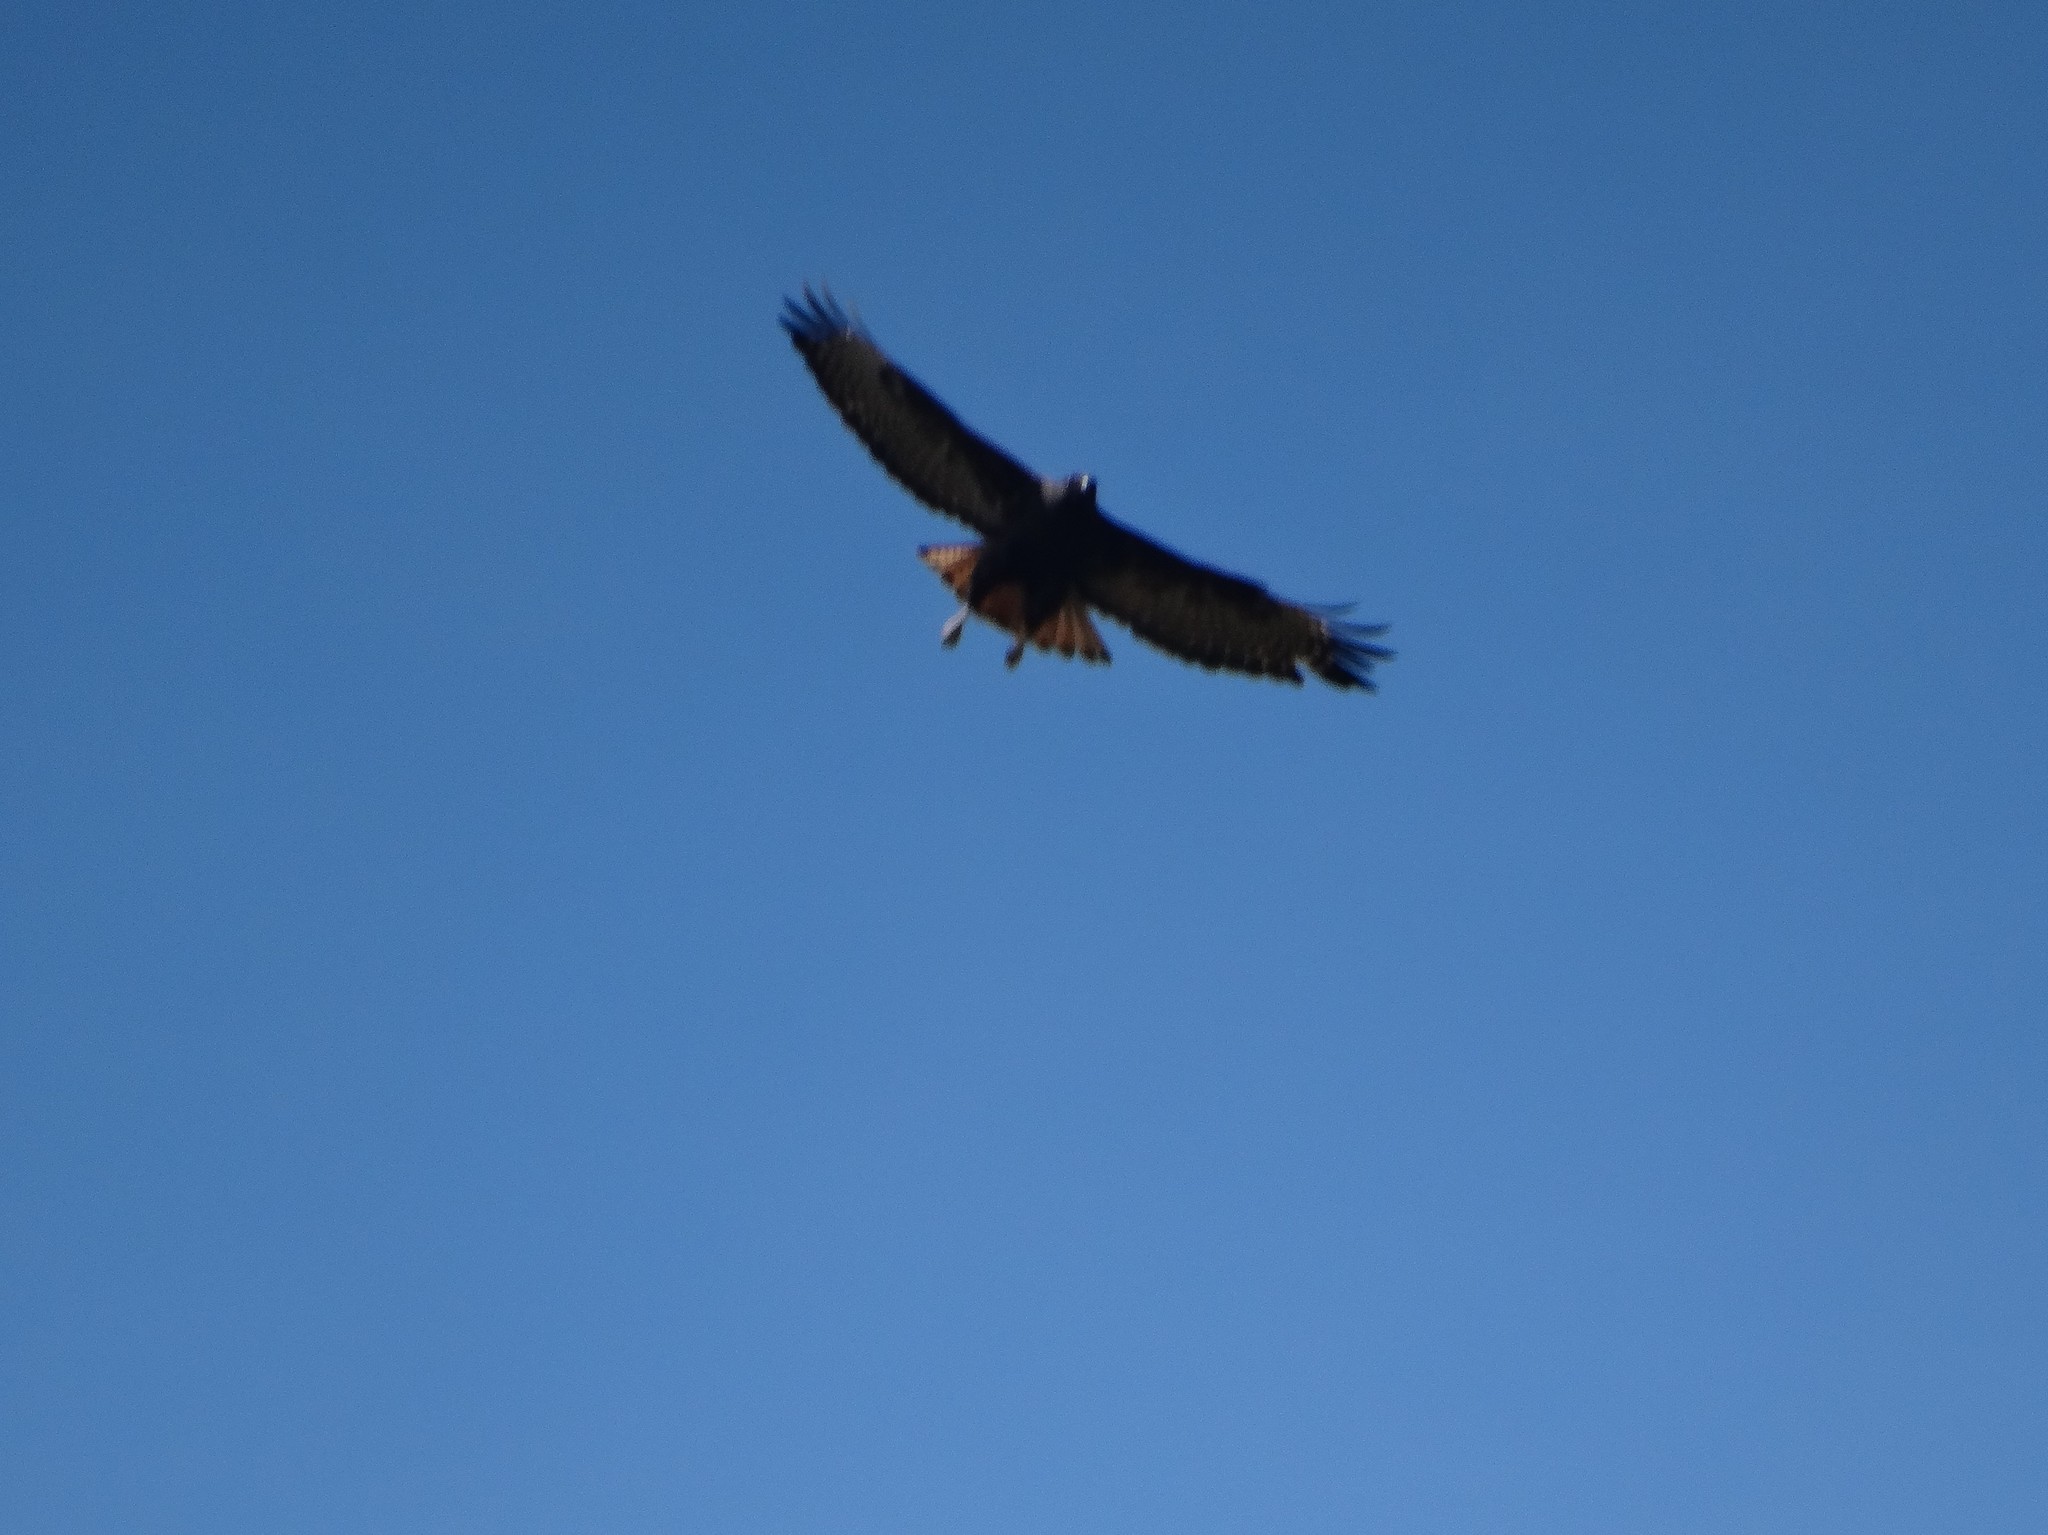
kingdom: Animalia
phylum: Chordata
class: Aves
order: Accipitriformes
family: Accipitridae
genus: Buteo
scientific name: Buteo jamaicensis
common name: Red-tailed hawk
